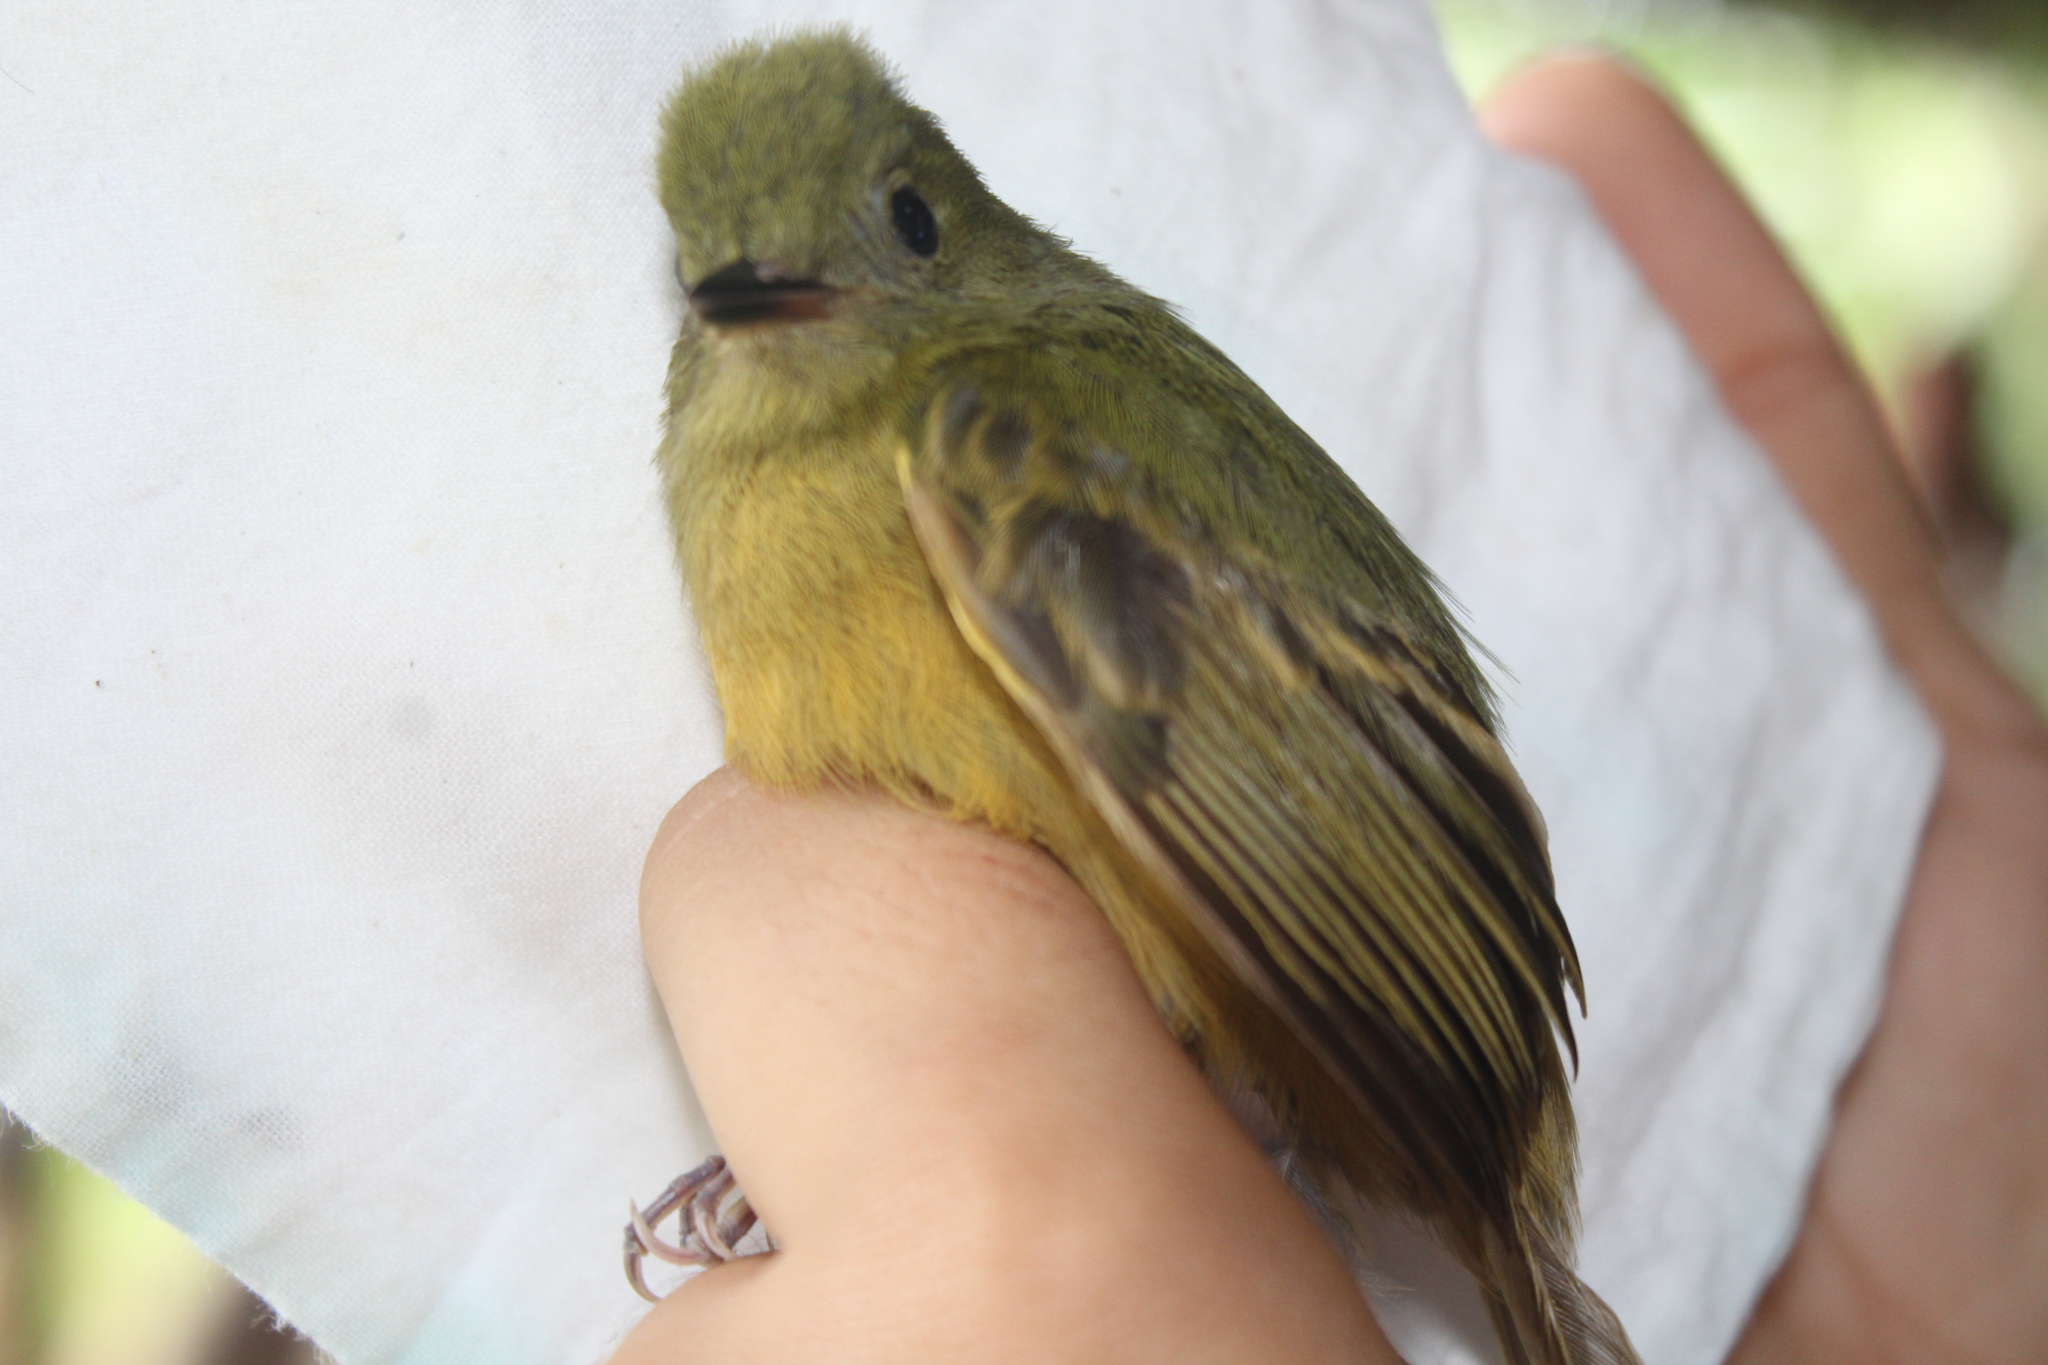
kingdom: Animalia
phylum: Chordata
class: Aves
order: Passeriformes
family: Tyrannidae
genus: Mionectes
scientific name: Mionectes oleagineus
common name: Ochre-bellied flycatcher
